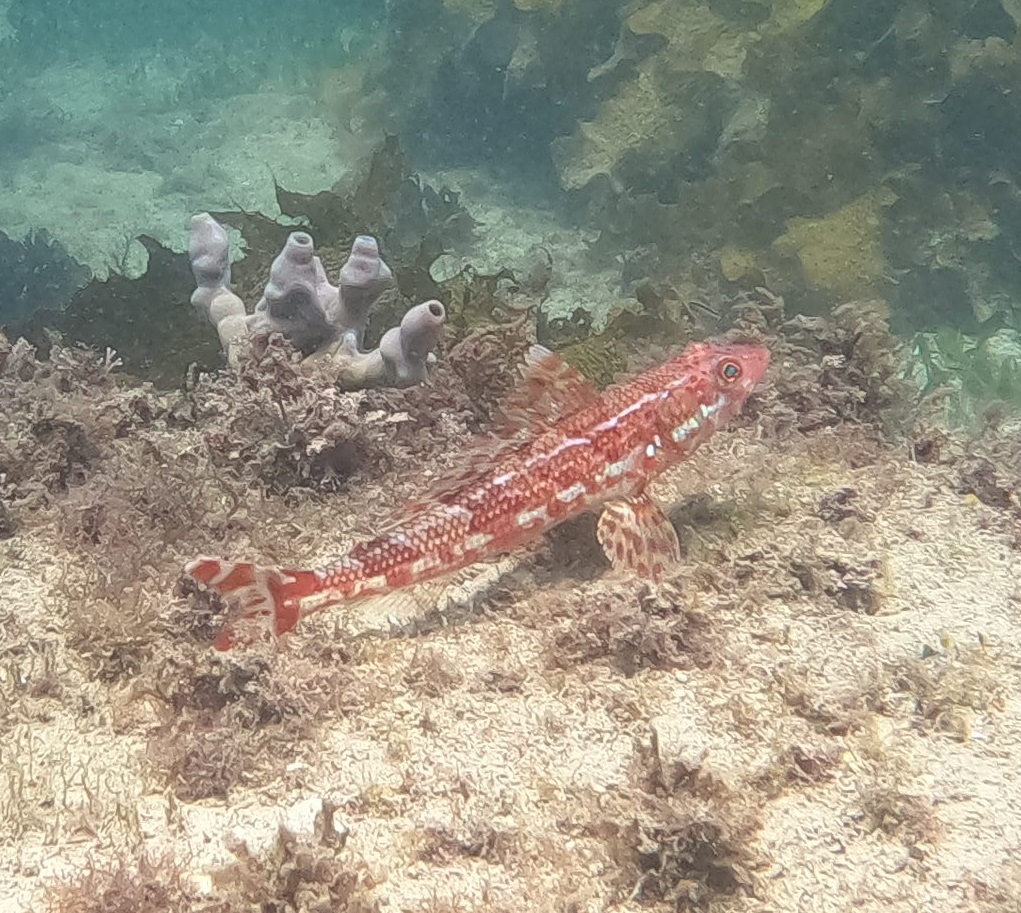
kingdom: Animalia
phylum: Chordata
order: Aulopiformes
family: Aulopidae
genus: Latropiscis
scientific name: Latropiscis purpurissatus
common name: Sergeant baker
